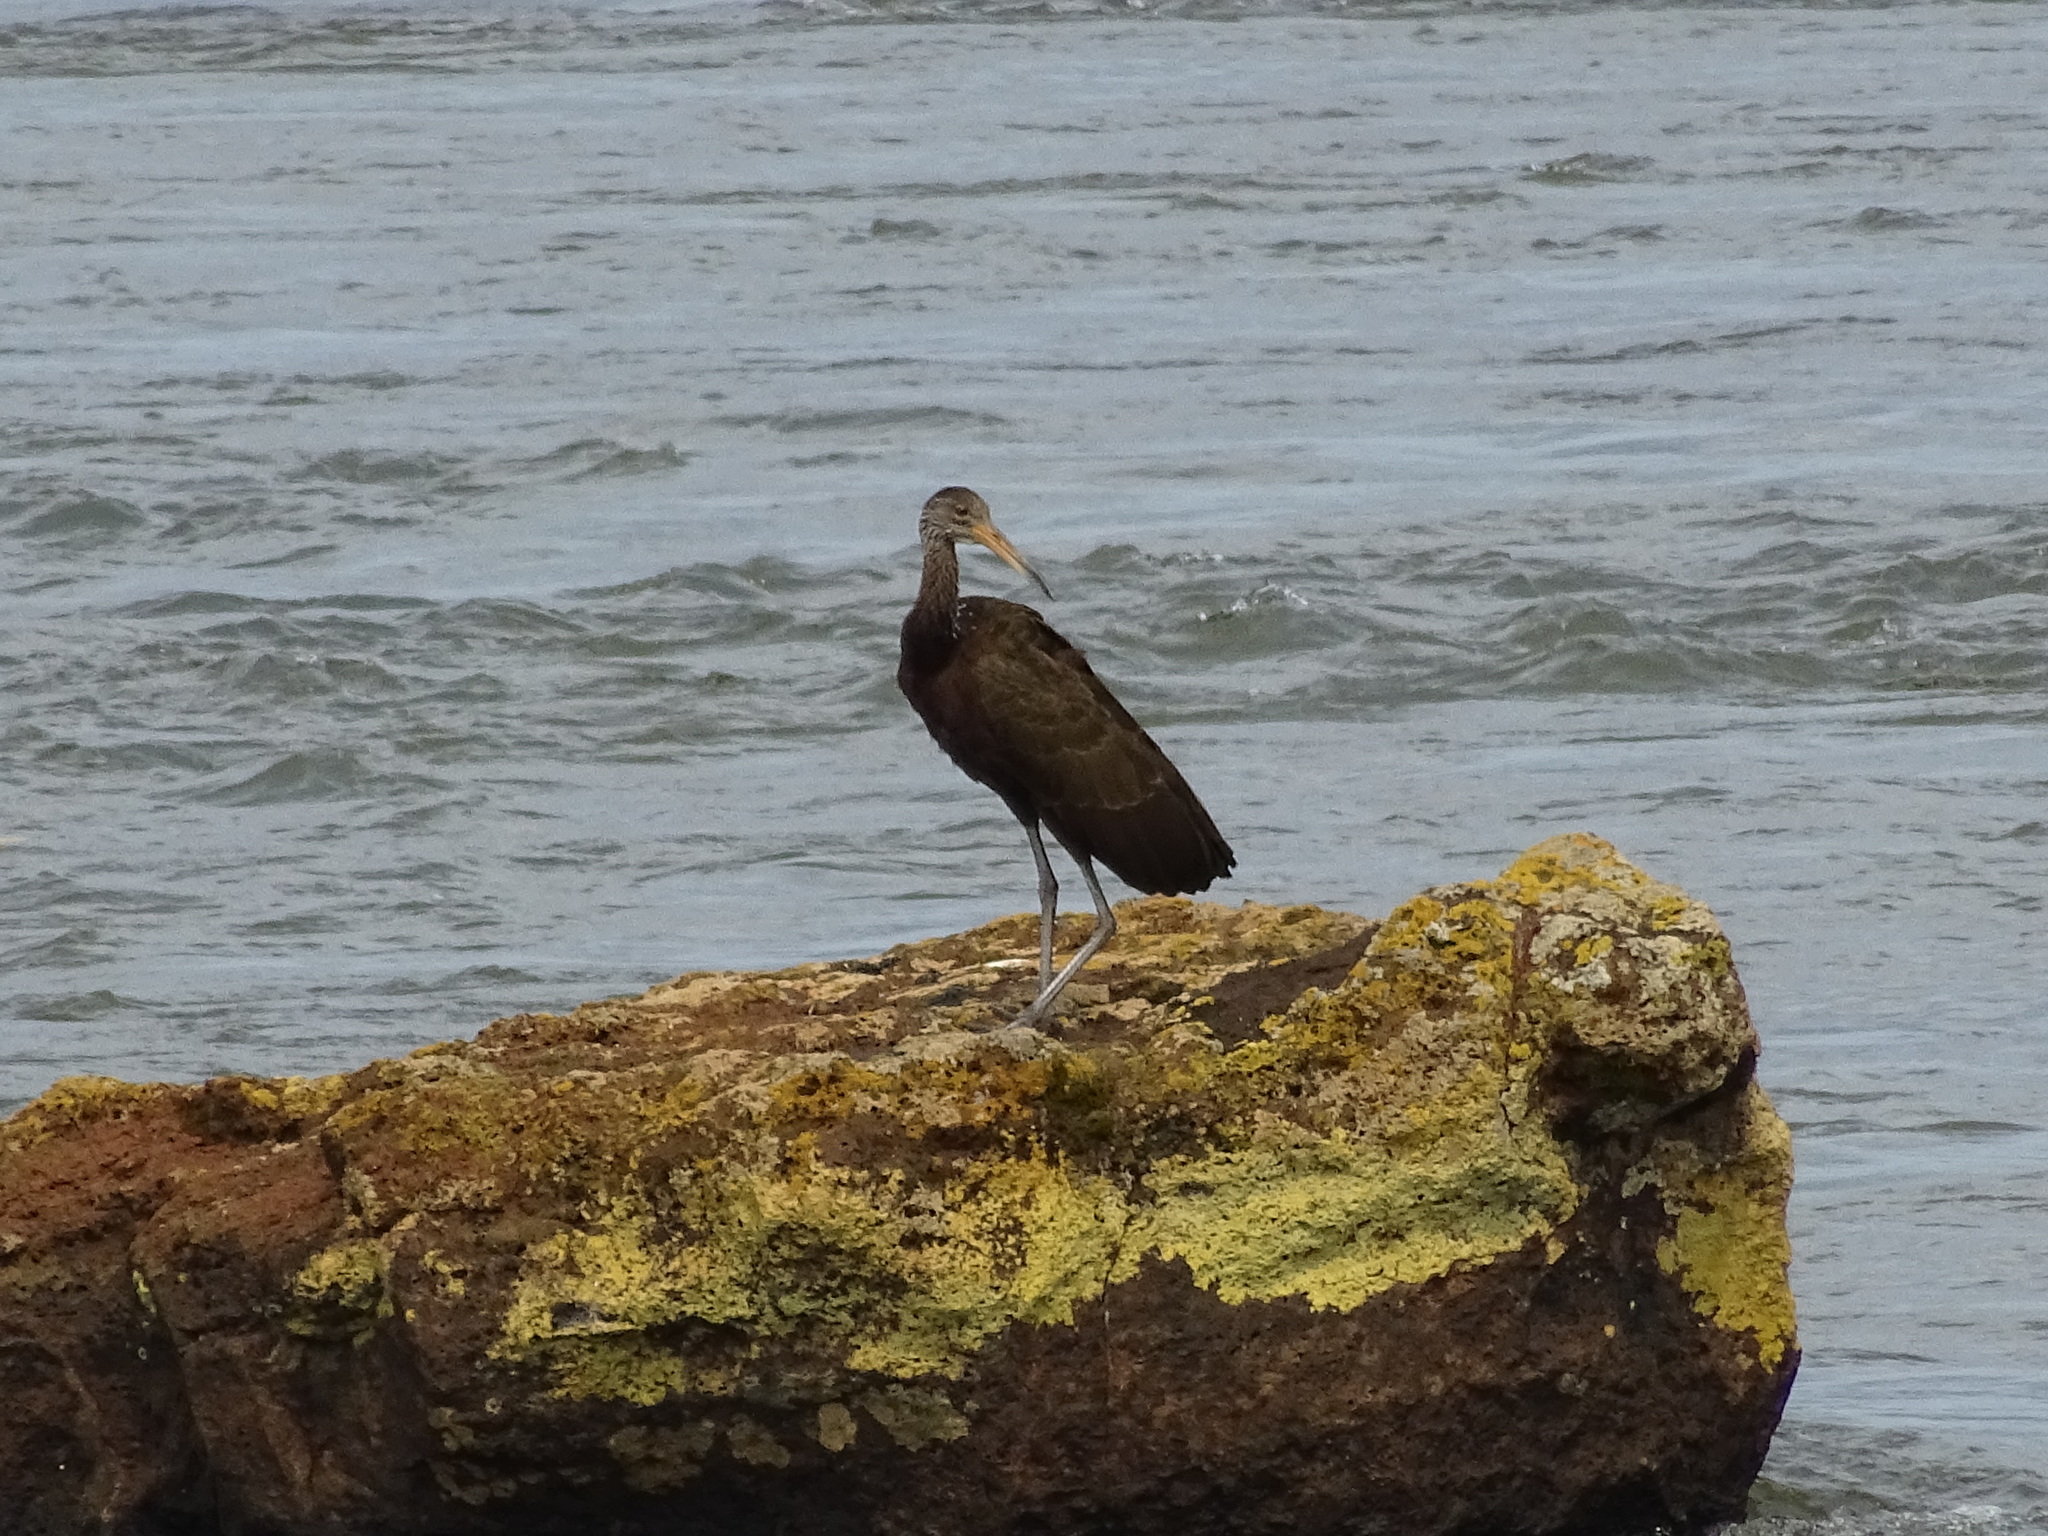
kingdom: Animalia
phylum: Chordata
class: Aves
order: Gruiformes
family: Aramidae
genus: Aramus
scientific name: Aramus guarauna
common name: Limpkin
